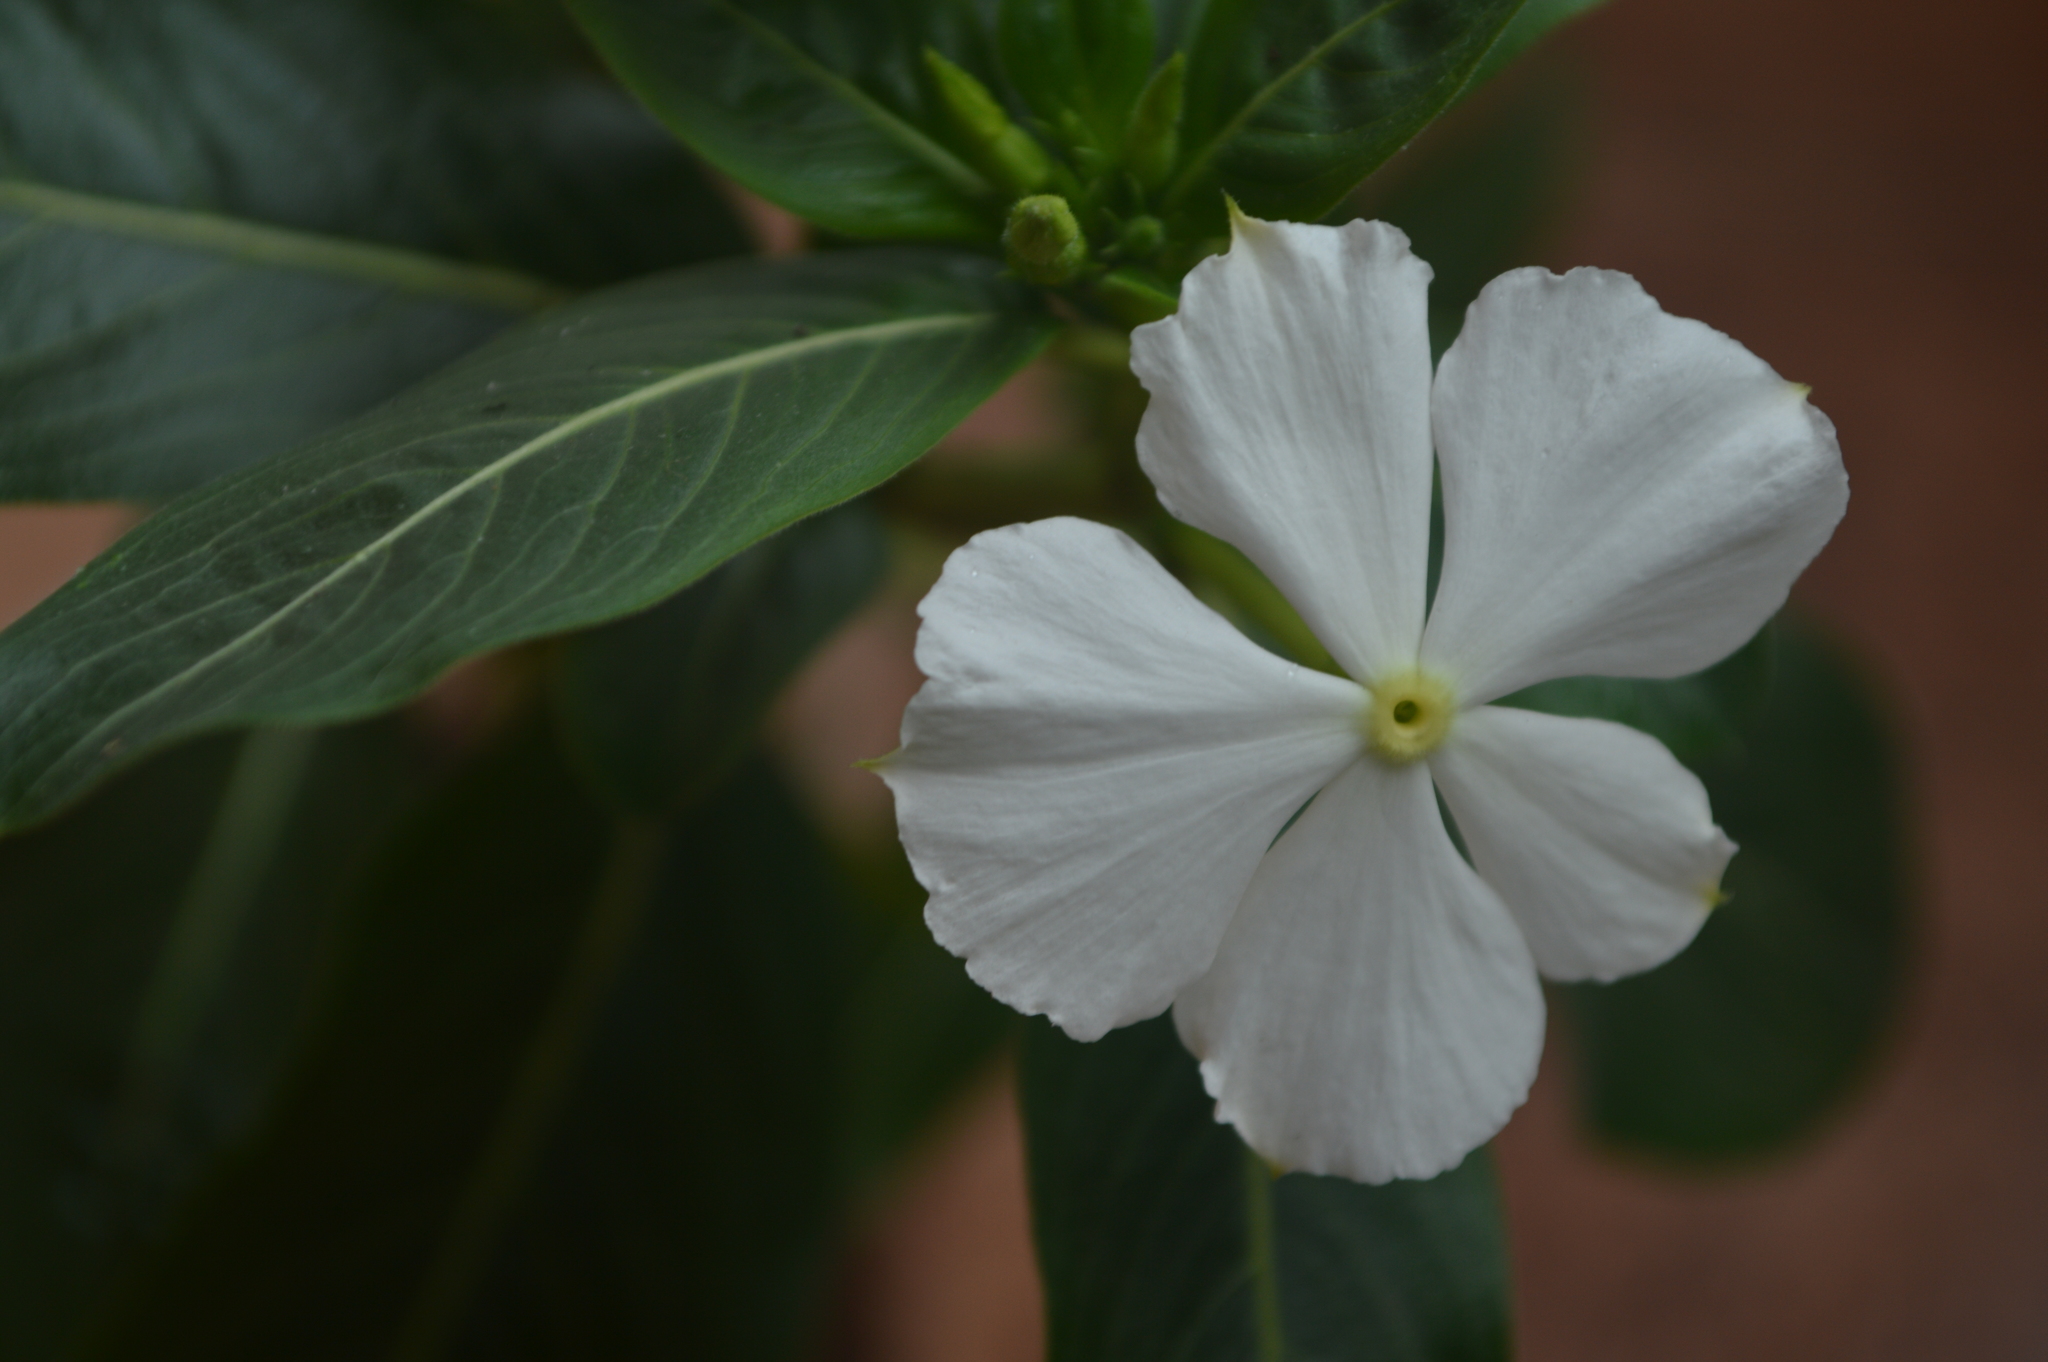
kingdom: Plantae
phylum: Tracheophyta
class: Magnoliopsida
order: Gentianales
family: Apocynaceae
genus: Catharanthus
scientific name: Catharanthus roseus
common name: Madagascar periwinkle
